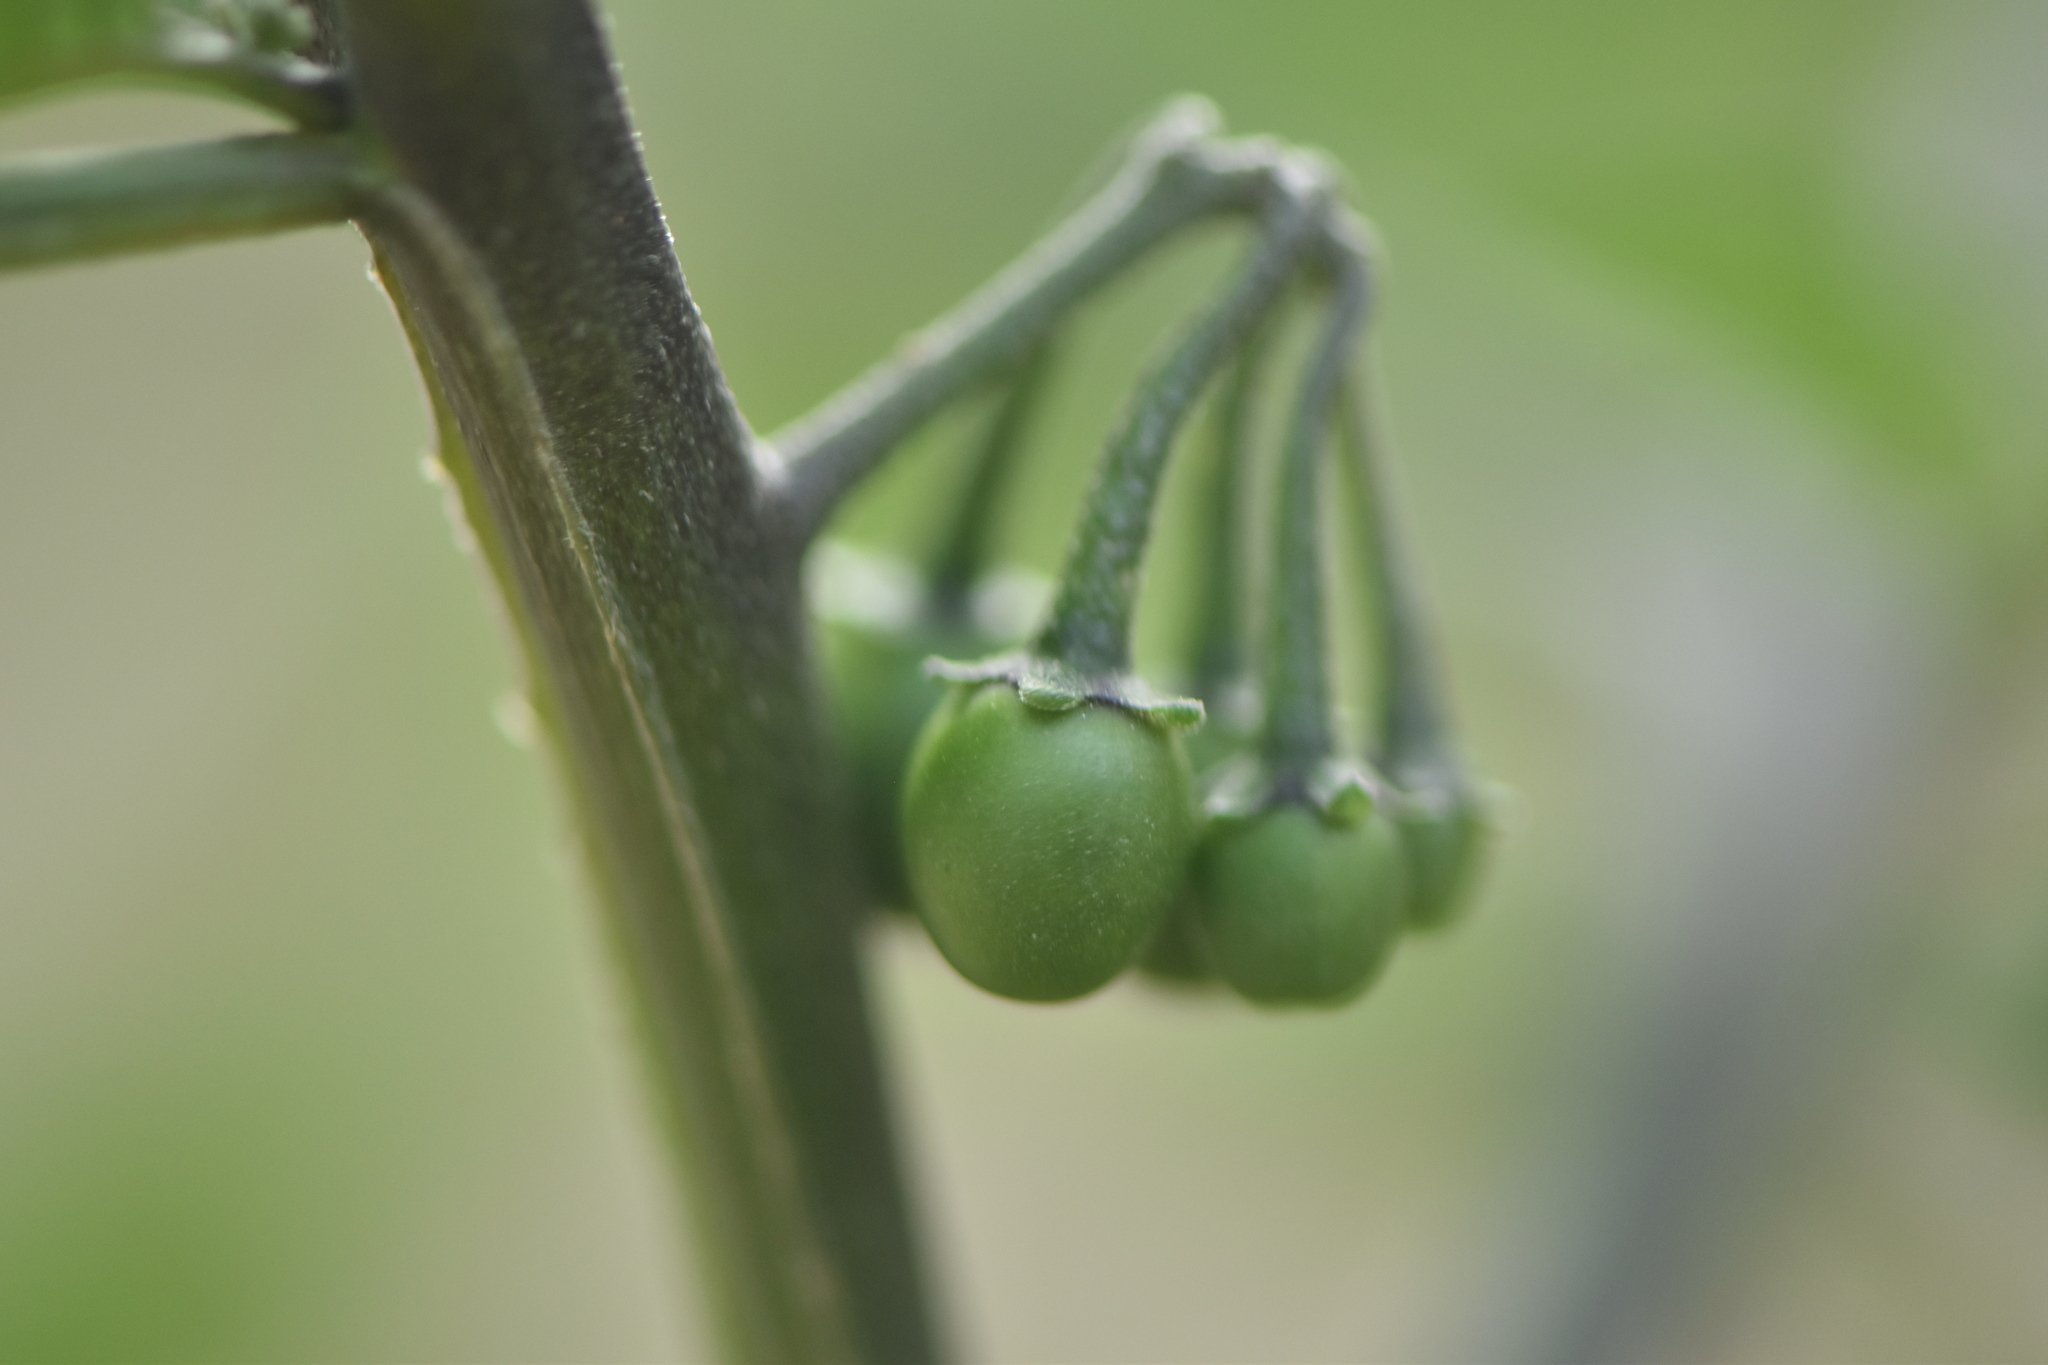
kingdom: Plantae
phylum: Tracheophyta
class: Magnoliopsida
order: Solanales
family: Solanaceae
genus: Solanum
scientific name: Solanum nigrum
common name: Black nightshade
